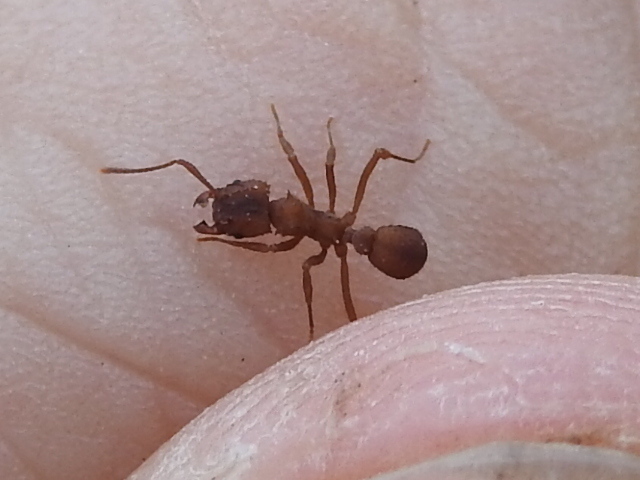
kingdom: Animalia
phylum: Arthropoda
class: Insecta
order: Hymenoptera
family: Formicidae
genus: Trachymyrmex
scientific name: Trachymyrmex septentrionalis
